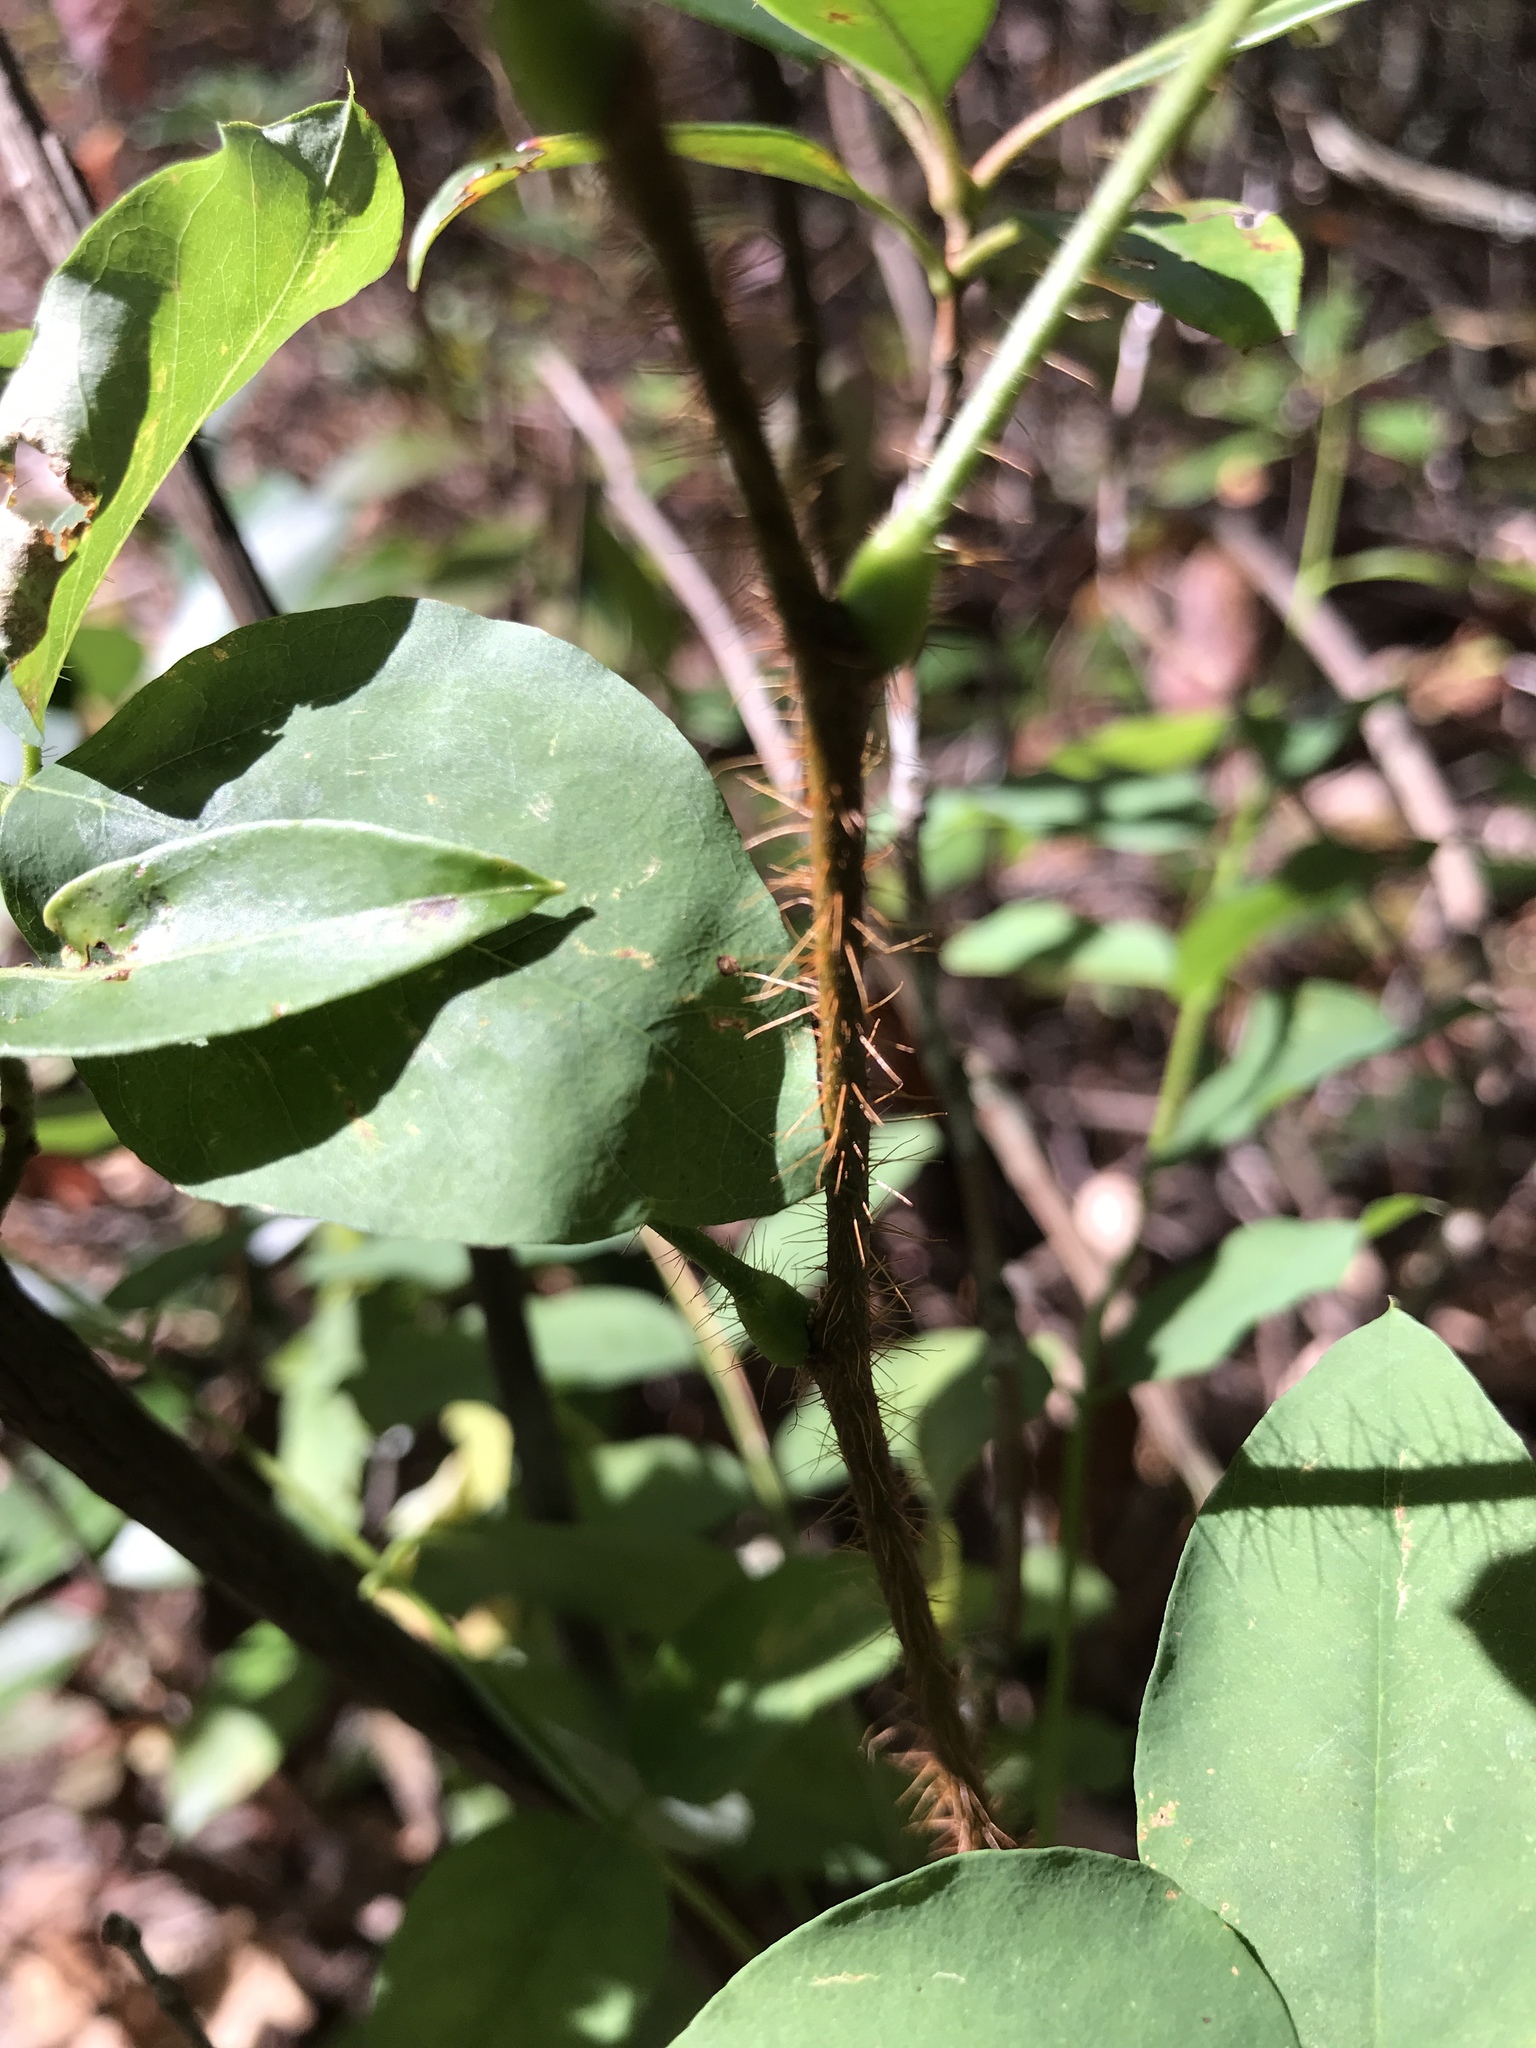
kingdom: Plantae
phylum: Tracheophyta
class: Magnoliopsida
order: Fabales
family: Fabaceae
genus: Robinia
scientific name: Robinia hispida
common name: Bristly locust
